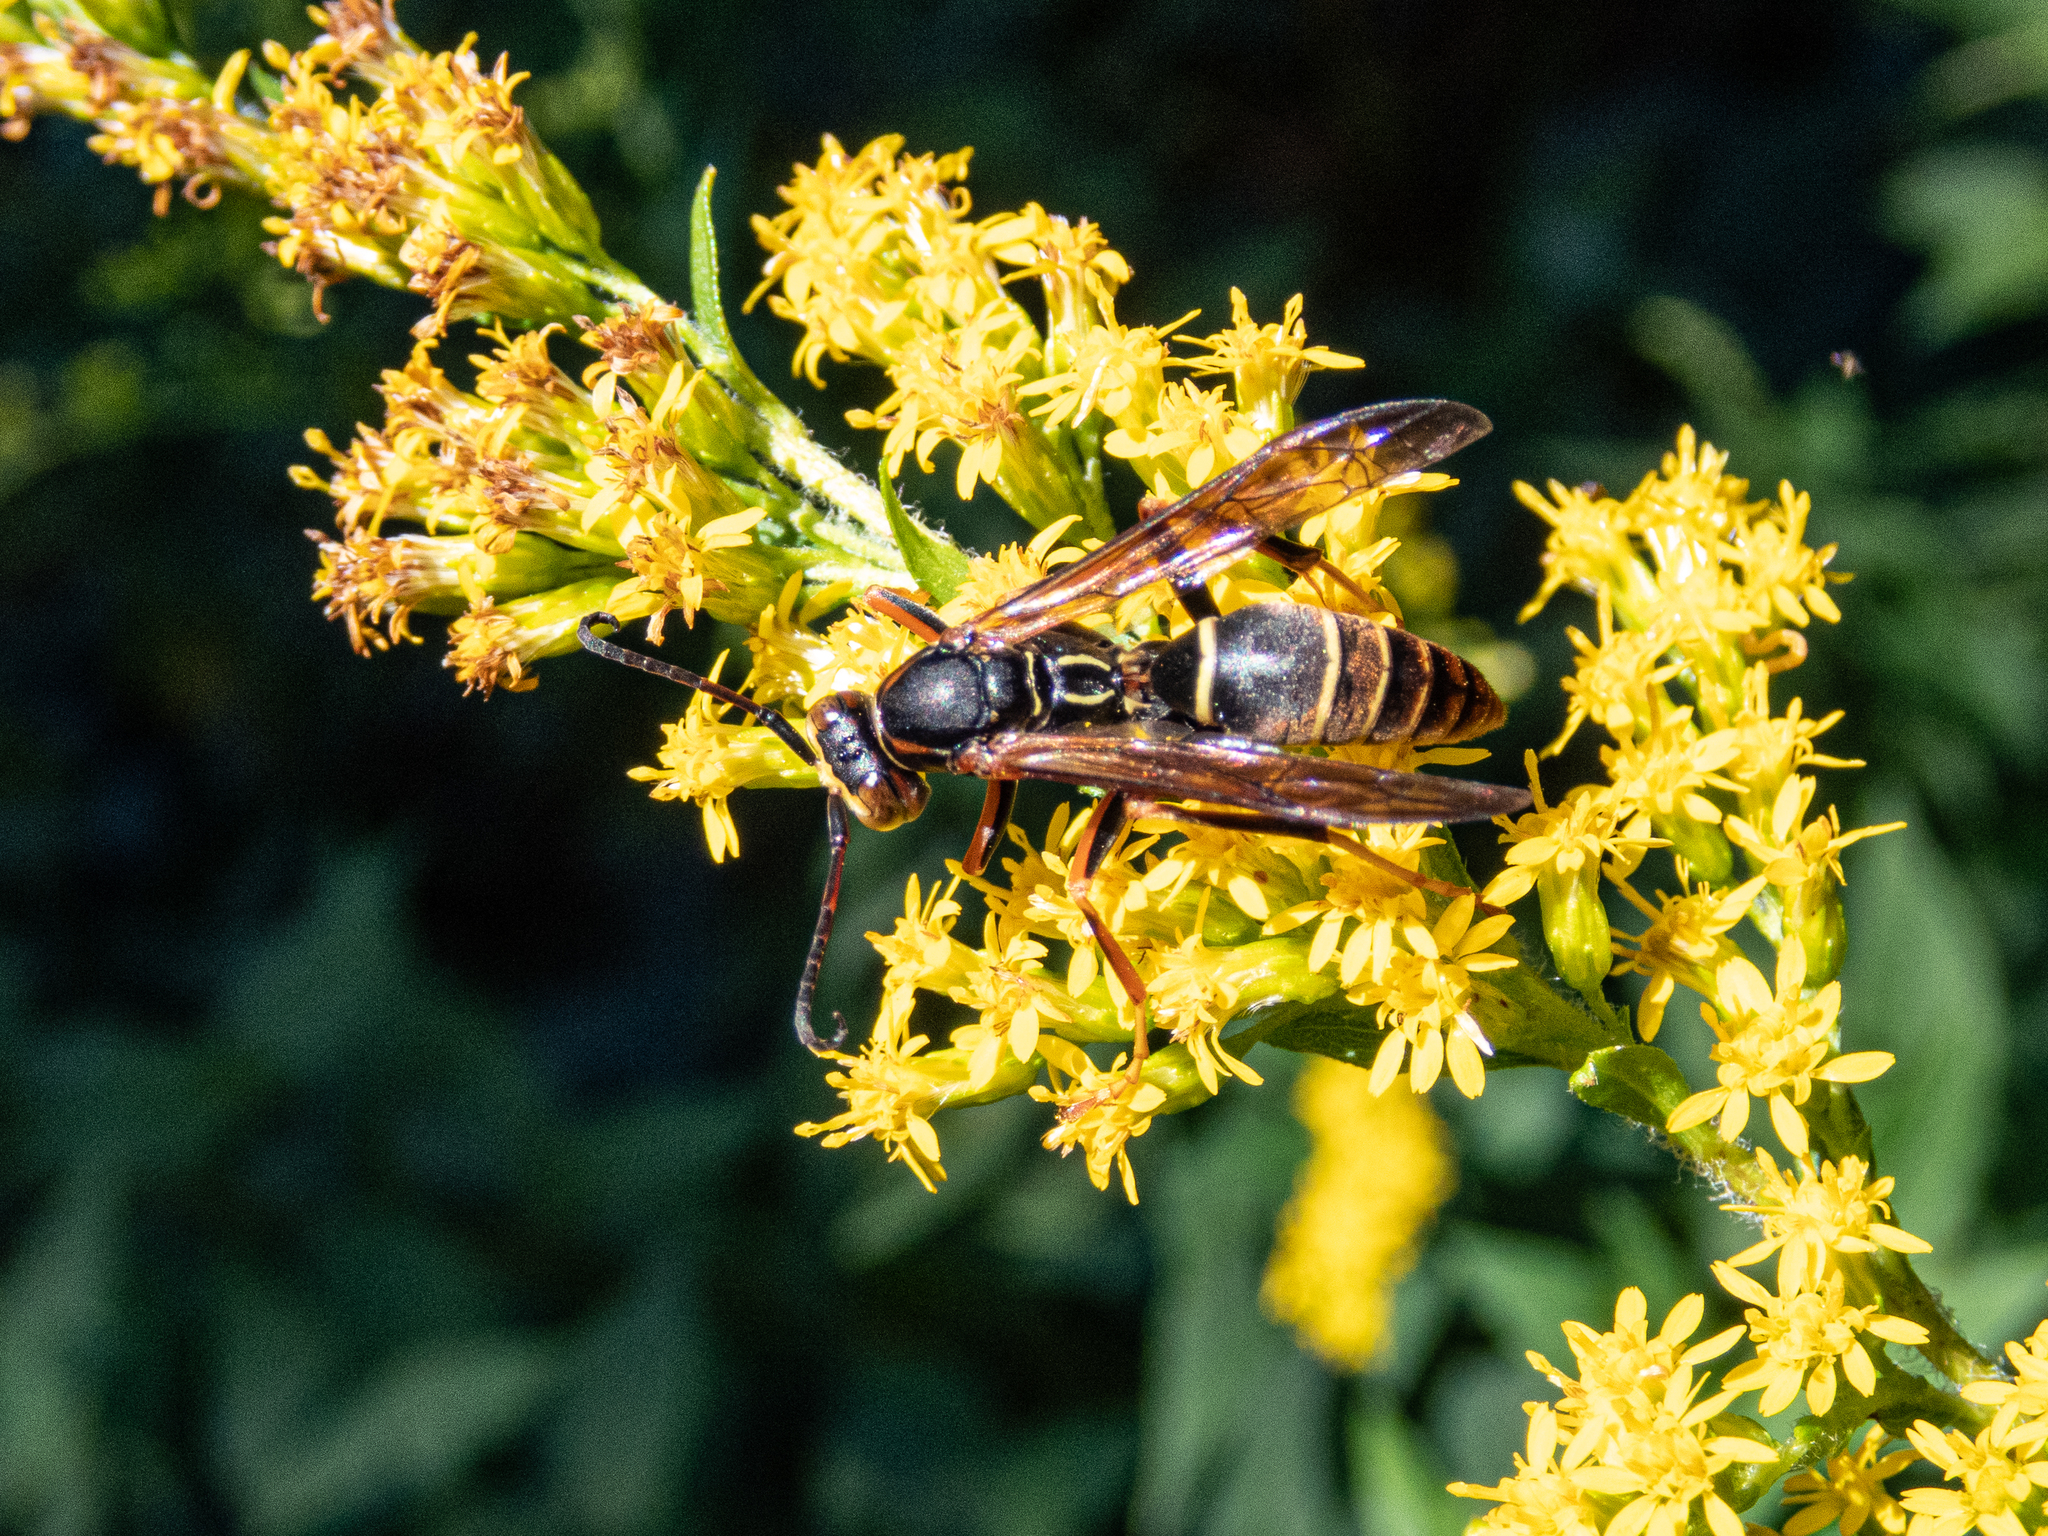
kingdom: Animalia
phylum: Arthropoda
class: Insecta
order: Hymenoptera
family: Eumenidae
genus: Polistes
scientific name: Polistes fuscatus
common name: Dark paper wasp
